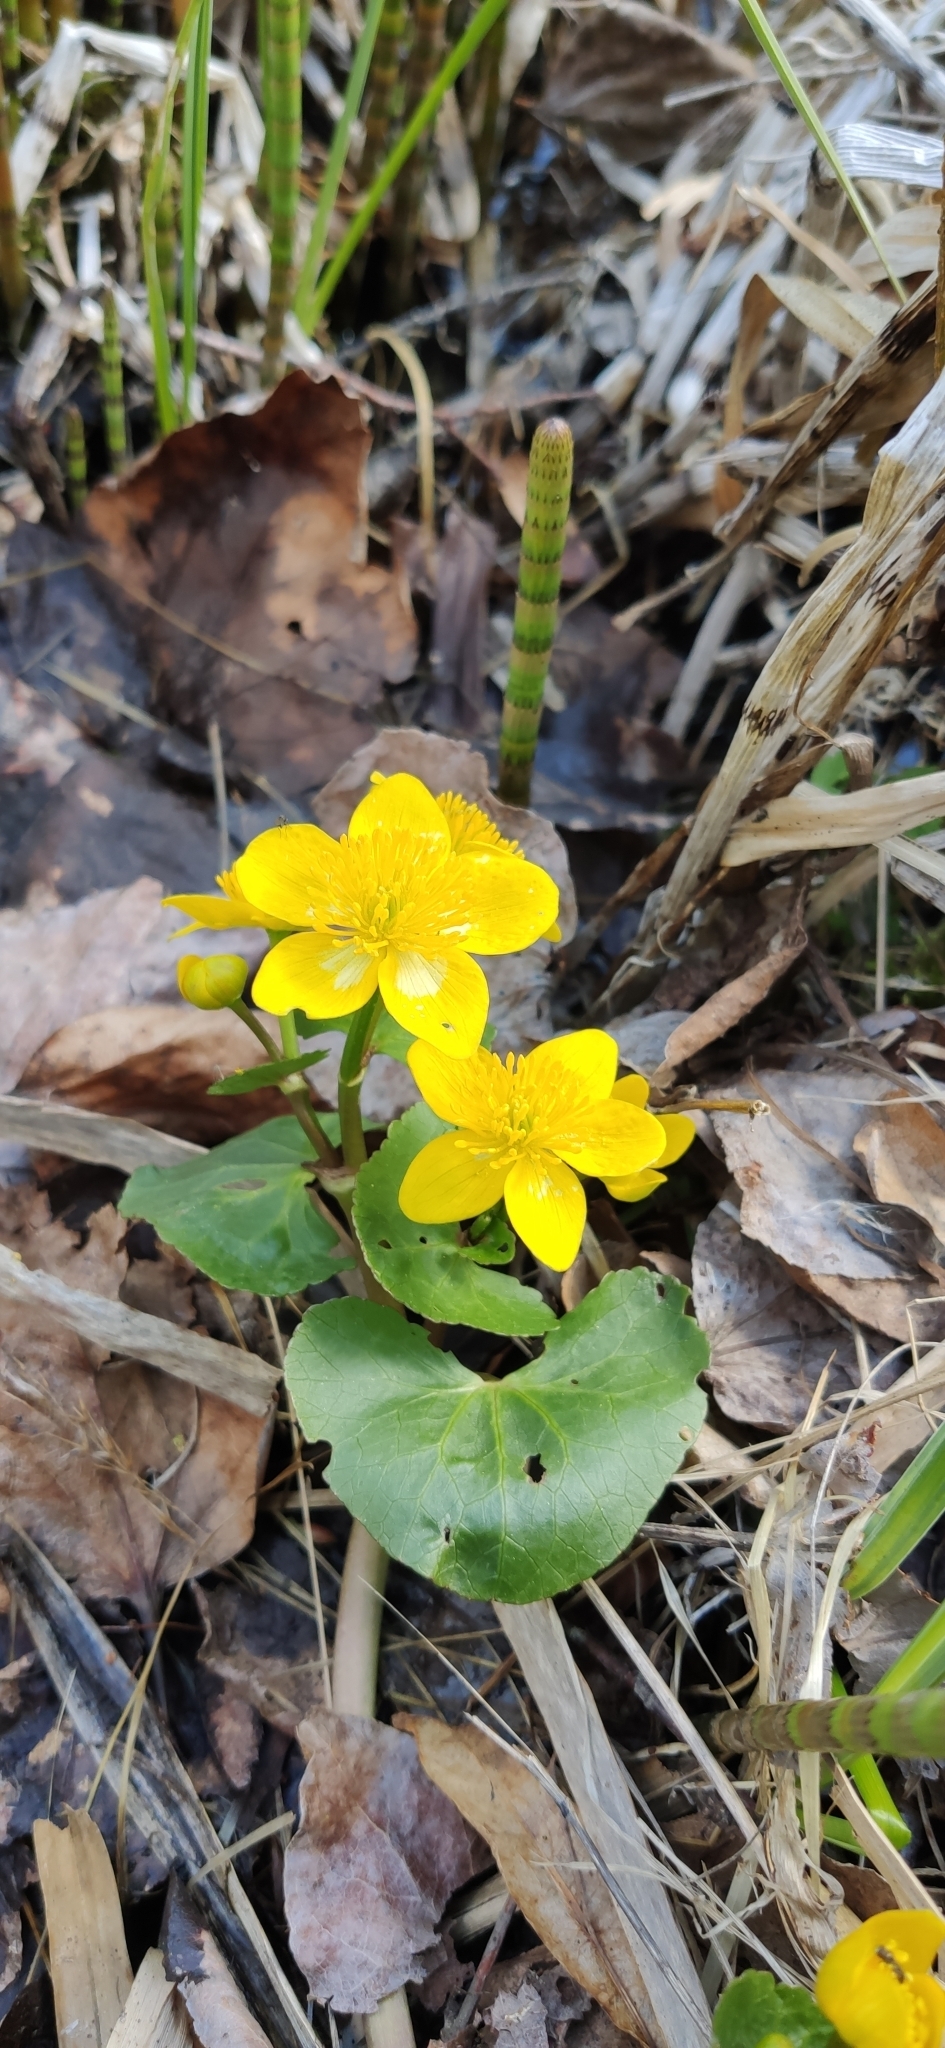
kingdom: Plantae
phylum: Tracheophyta
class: Magnoliopsida
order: Ranunculales
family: Ranunculaceae
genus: Caltha
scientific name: Caltha palustris
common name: Marsh marigold
